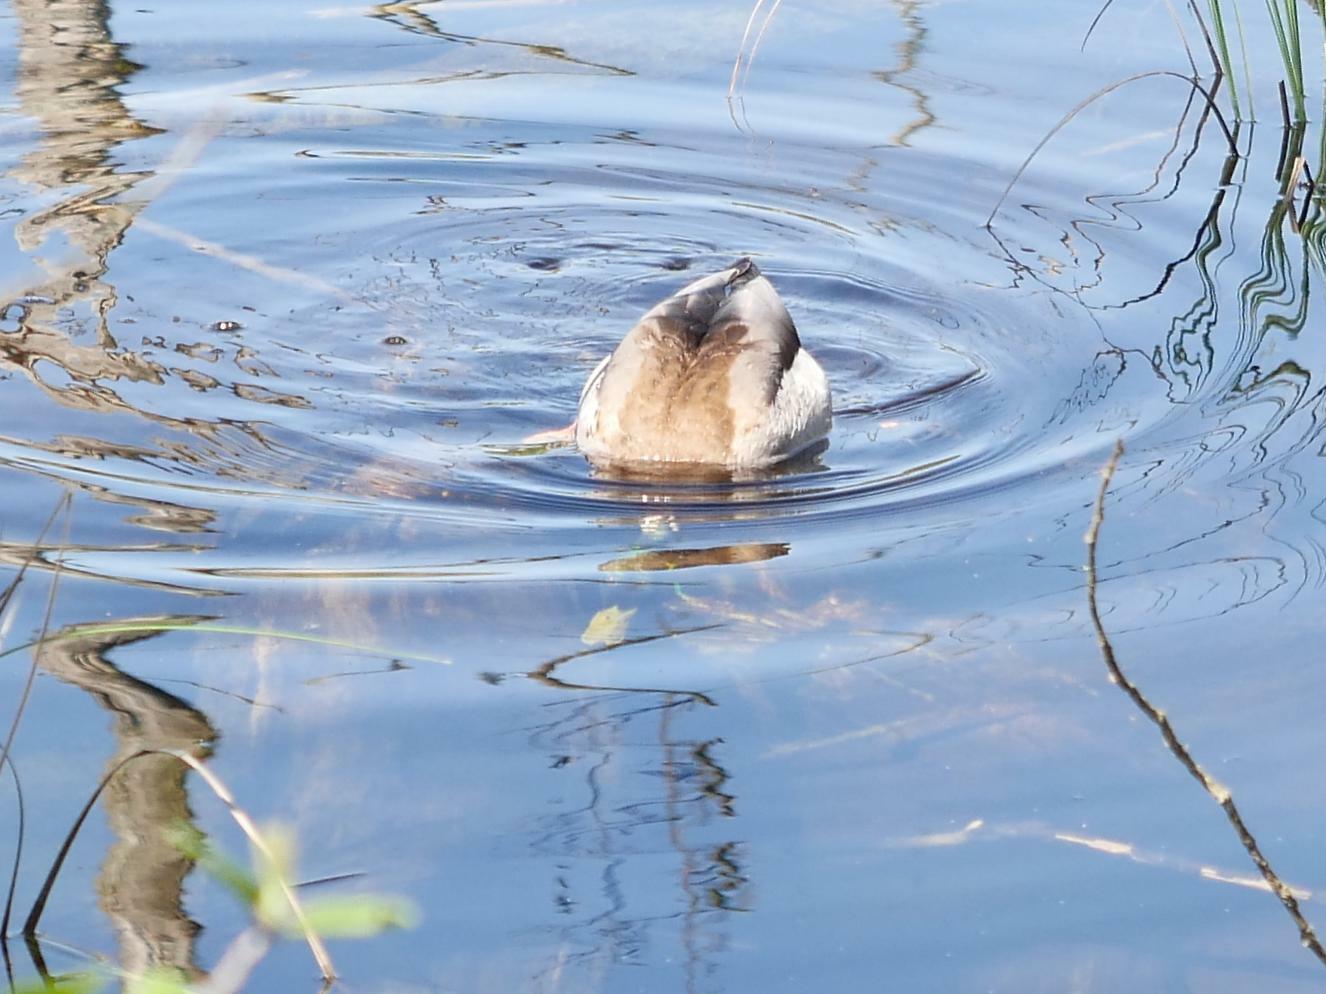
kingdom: Animalia
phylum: Chordata
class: Aves
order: Anseriformes
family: Anatidae
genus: Anas
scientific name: Anas platyrhynchos
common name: Mallard
